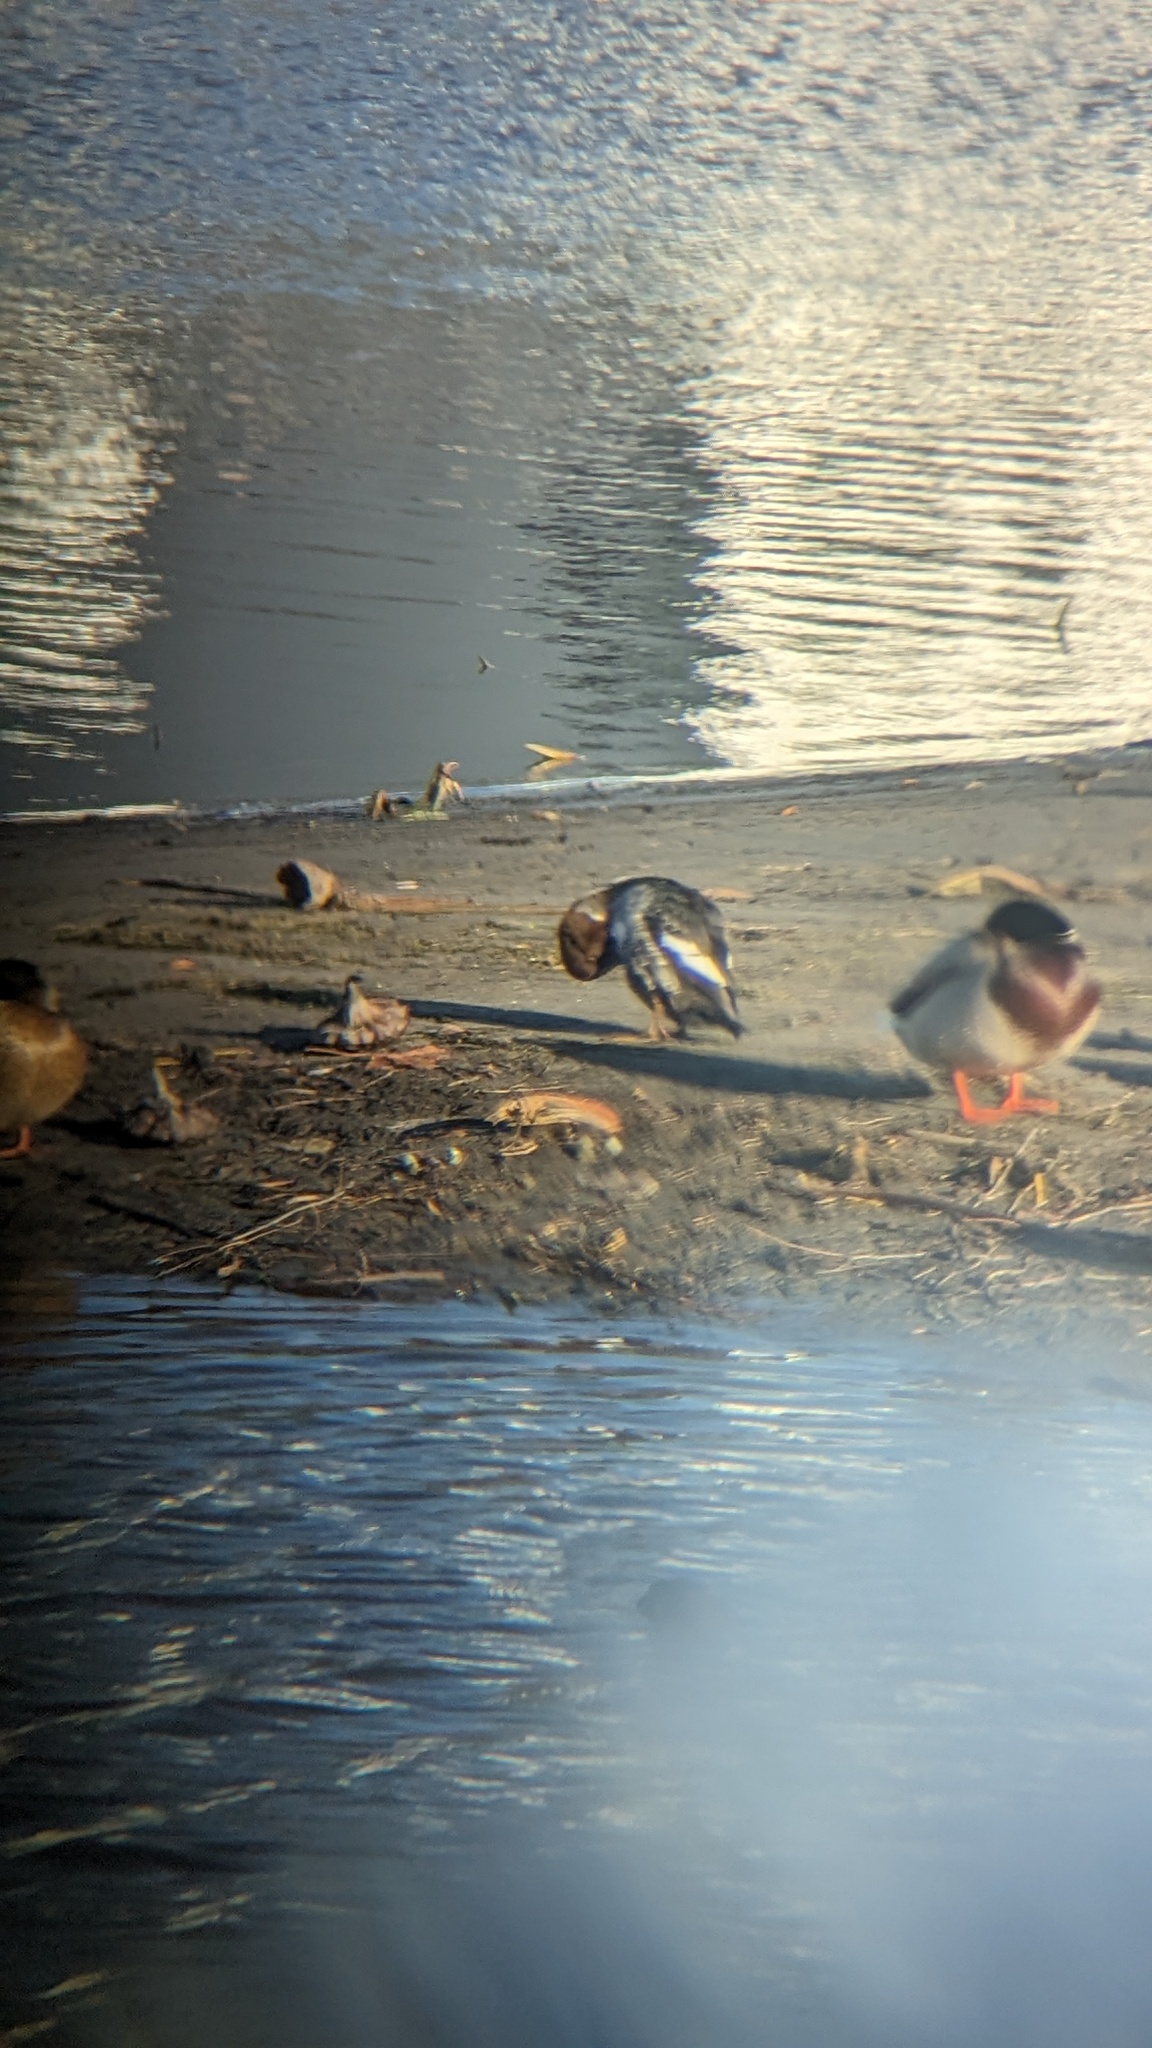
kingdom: Animalia
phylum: Chordata
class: Aves
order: Anseriformes
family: Anatidae
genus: Bucephala
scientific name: Bucephala clangula
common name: Common goldeneye
